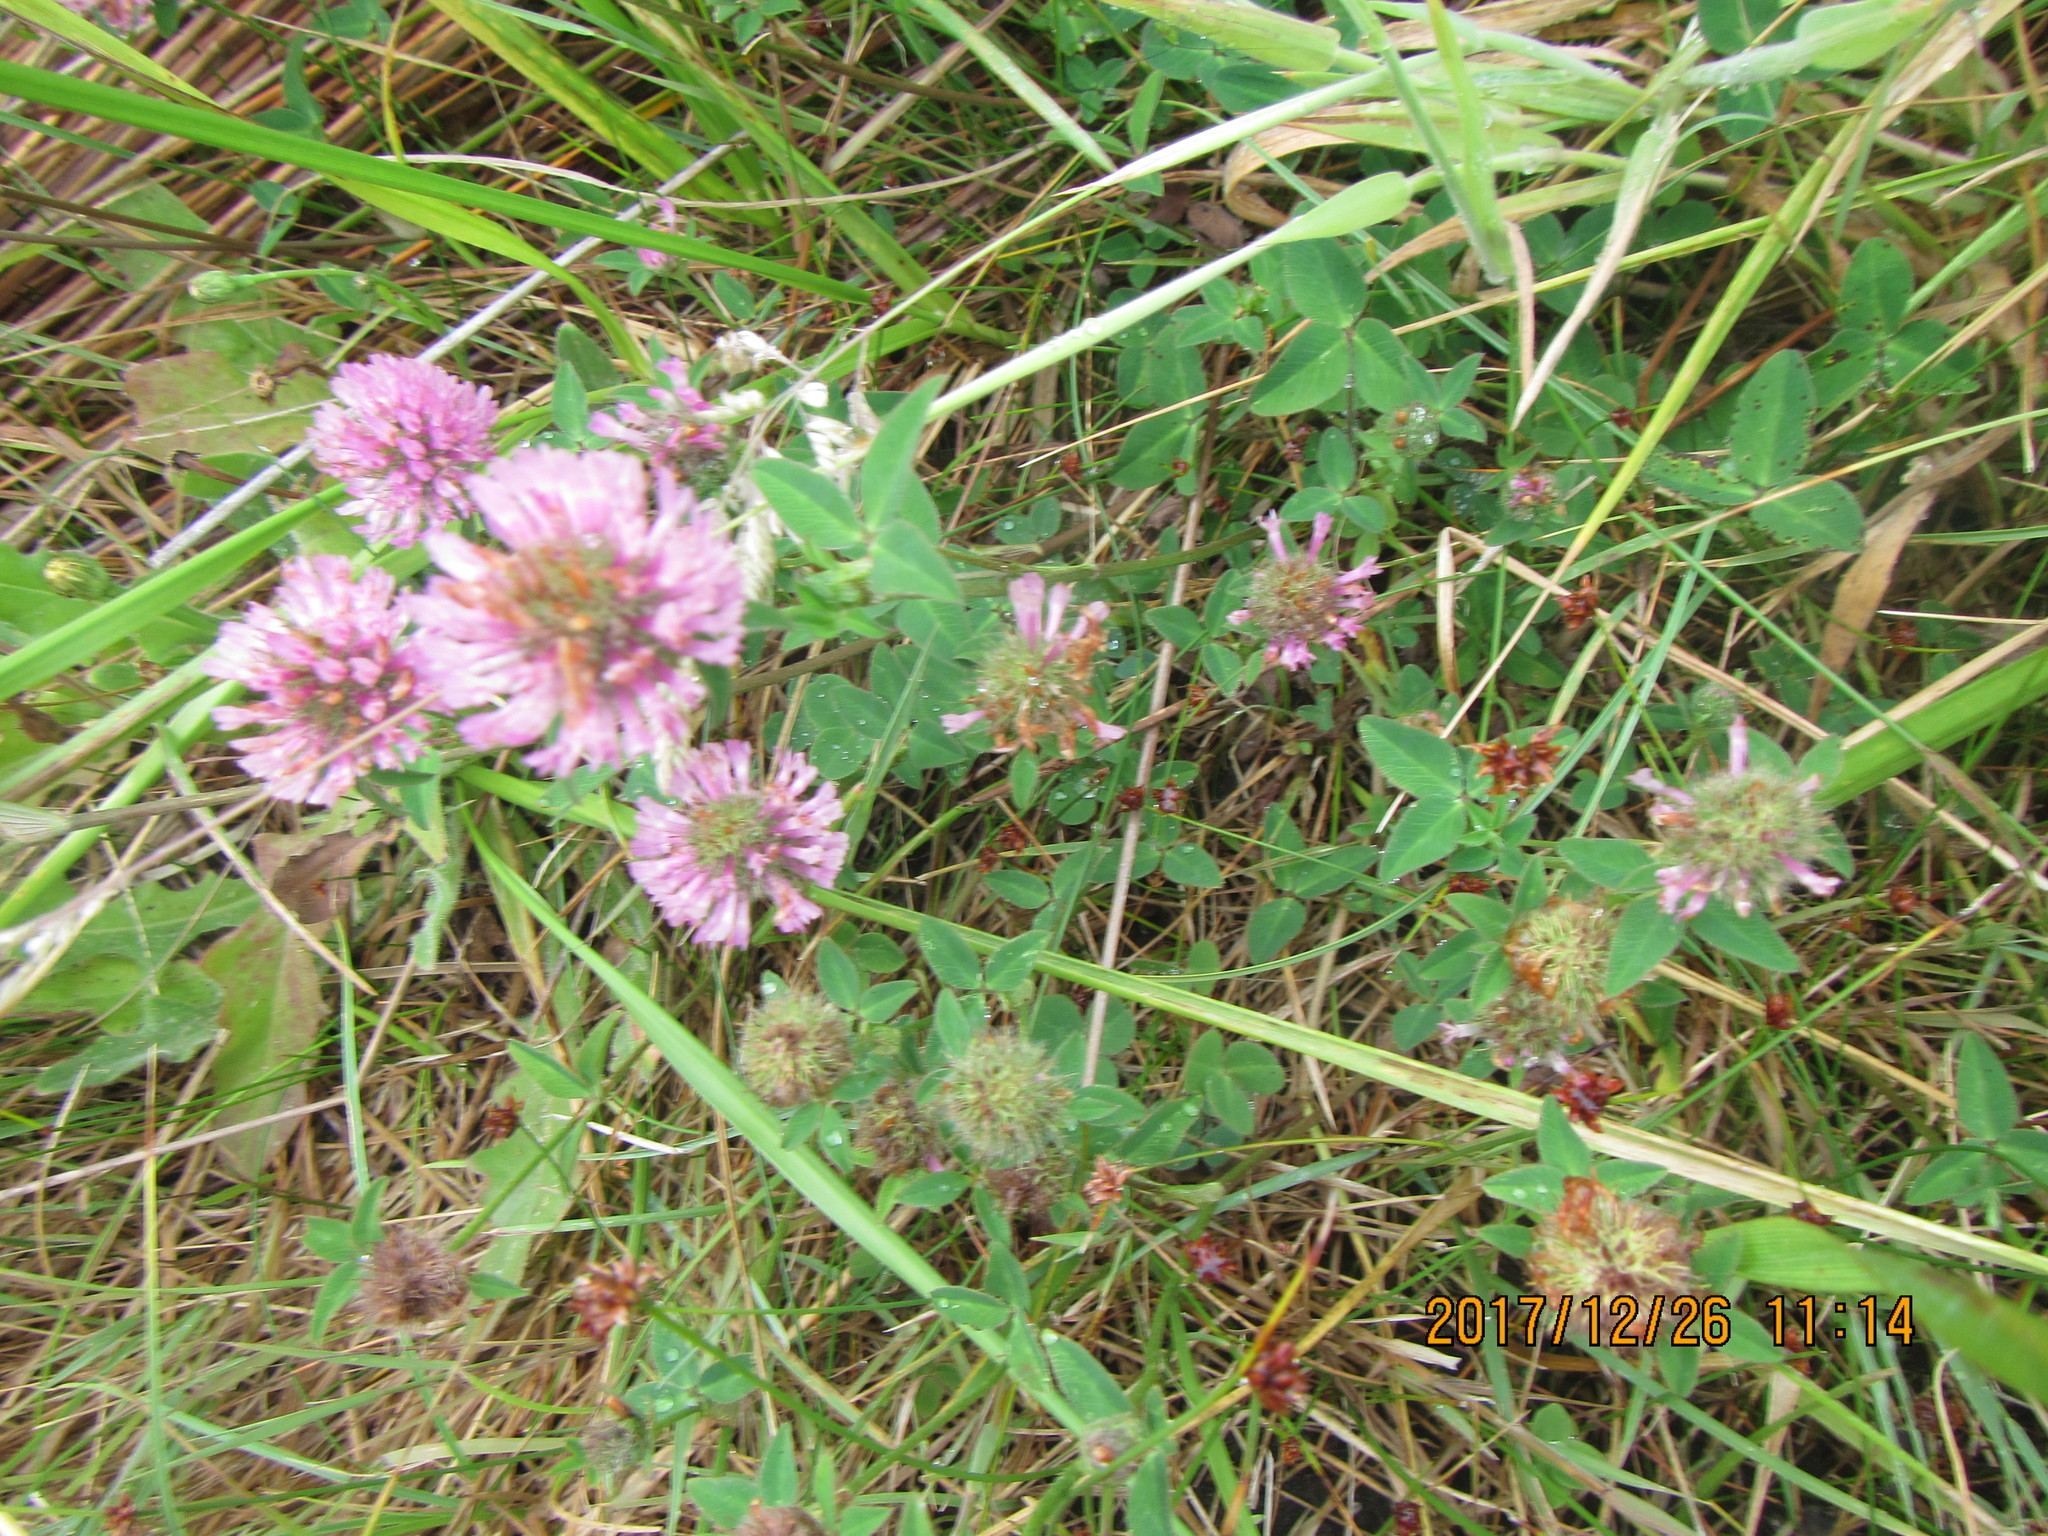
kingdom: Plantae
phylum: Tracheophyta
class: Magnoliopsida
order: Fabales
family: Fabaceae
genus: Trifolium
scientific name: Trifolium pratense
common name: Red clover
